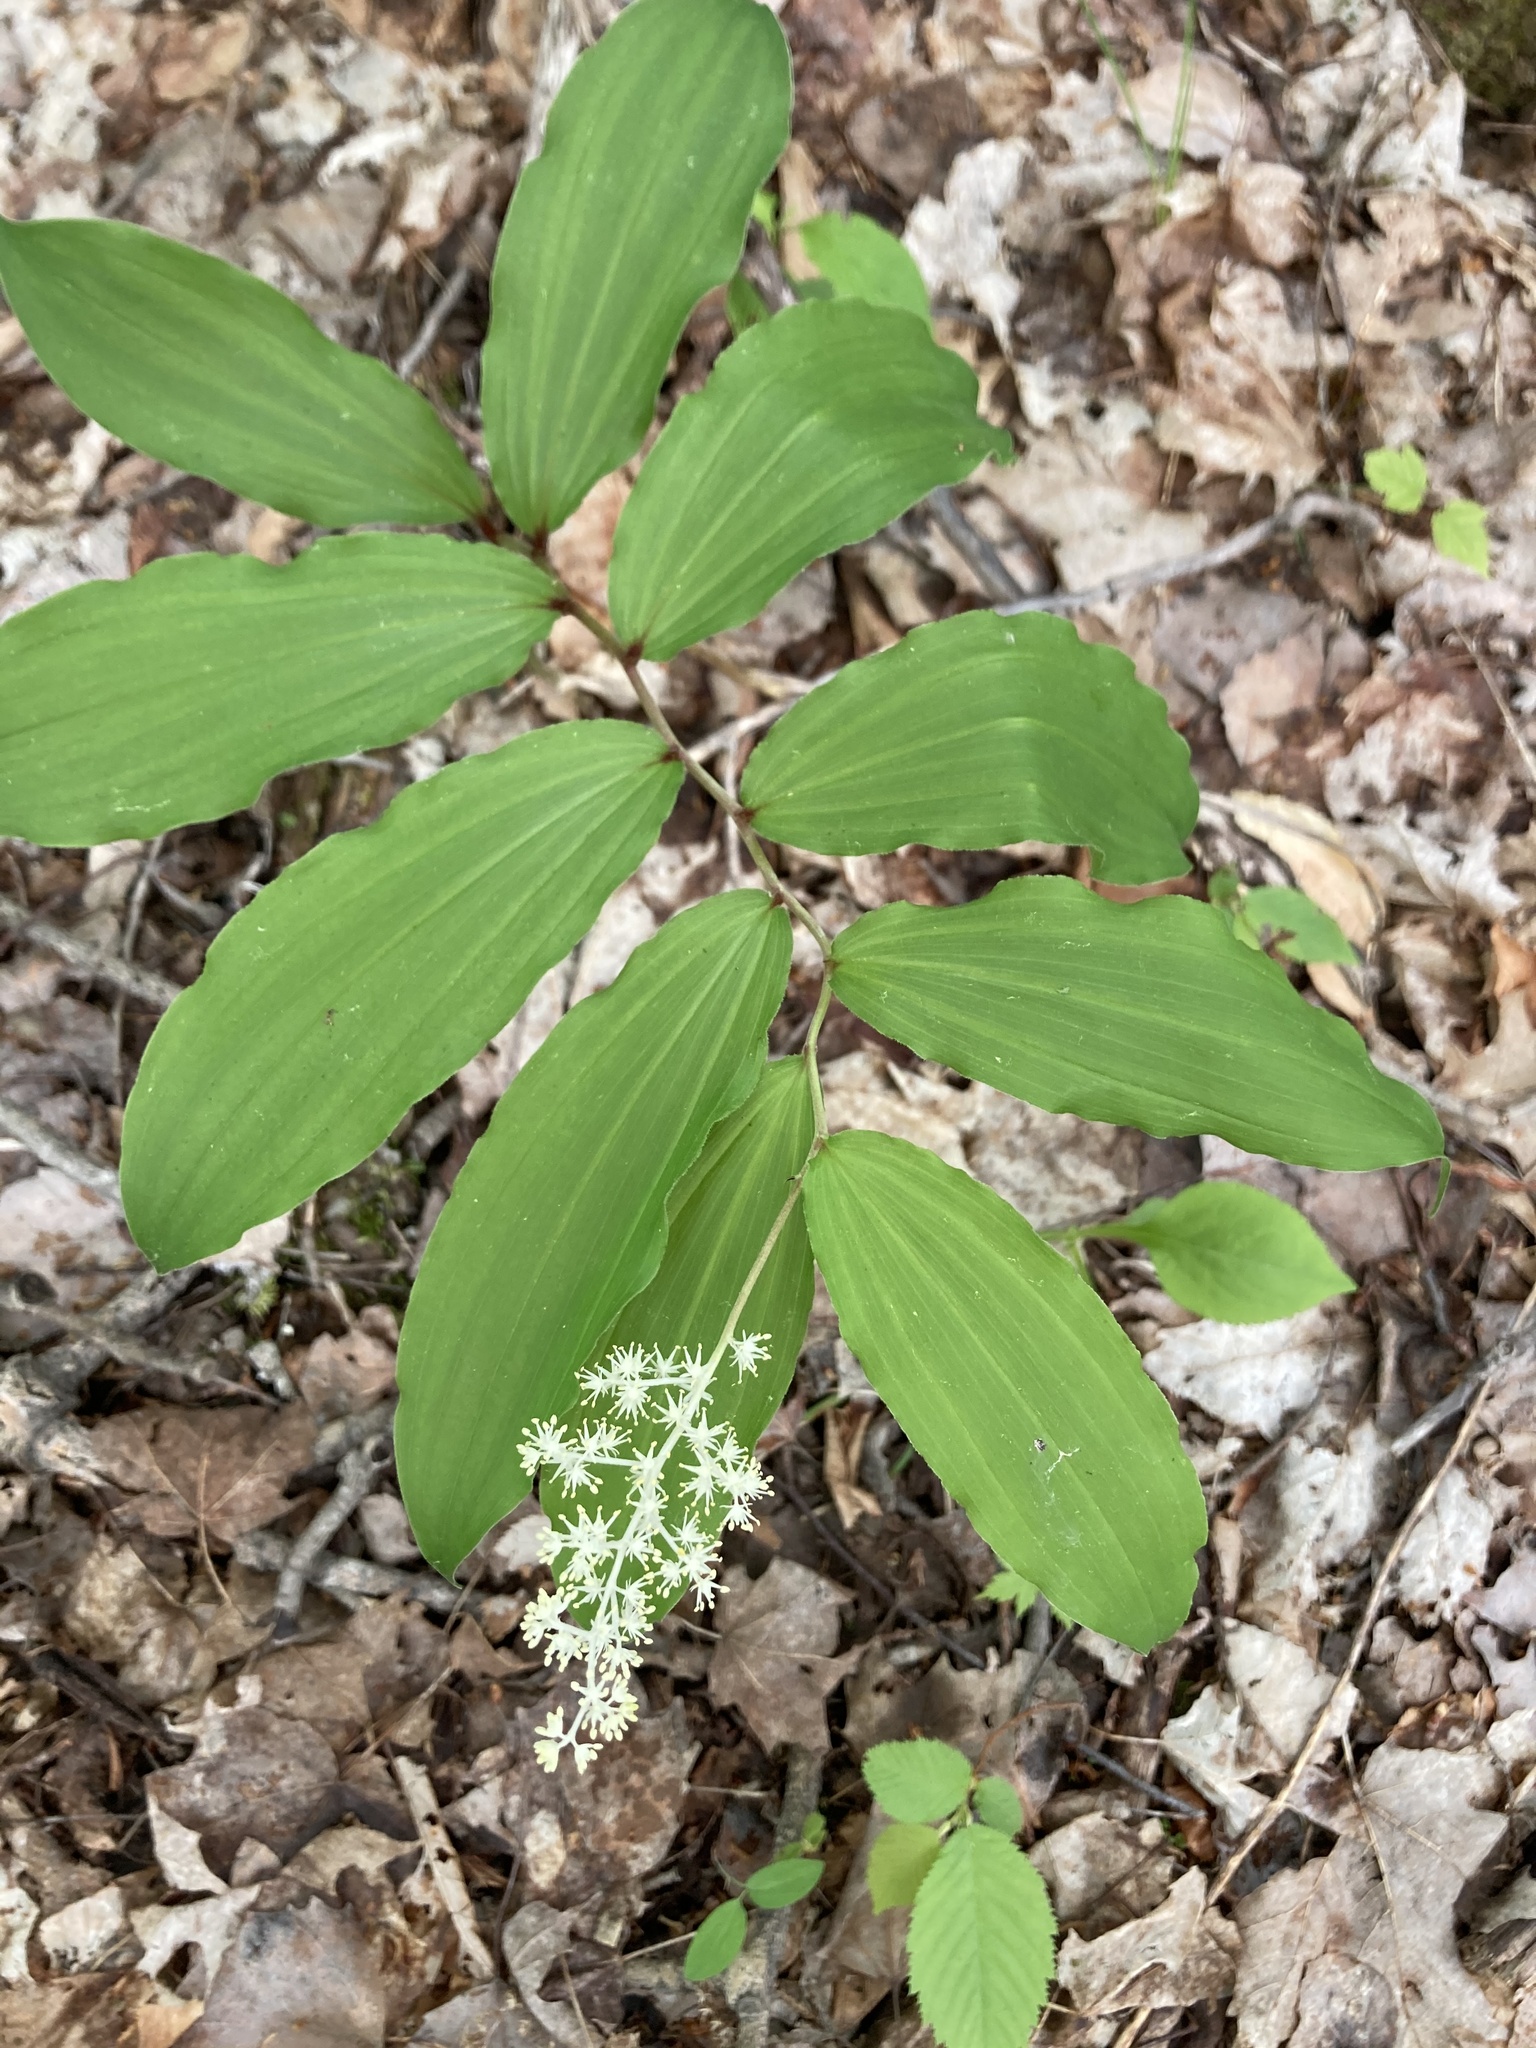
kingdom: Plantae
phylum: Tracheophyta
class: Liliopsida
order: Asparagales
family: Asparagaceae
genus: Maianthemum
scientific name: Maianthemum racemosum
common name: False spikenard
